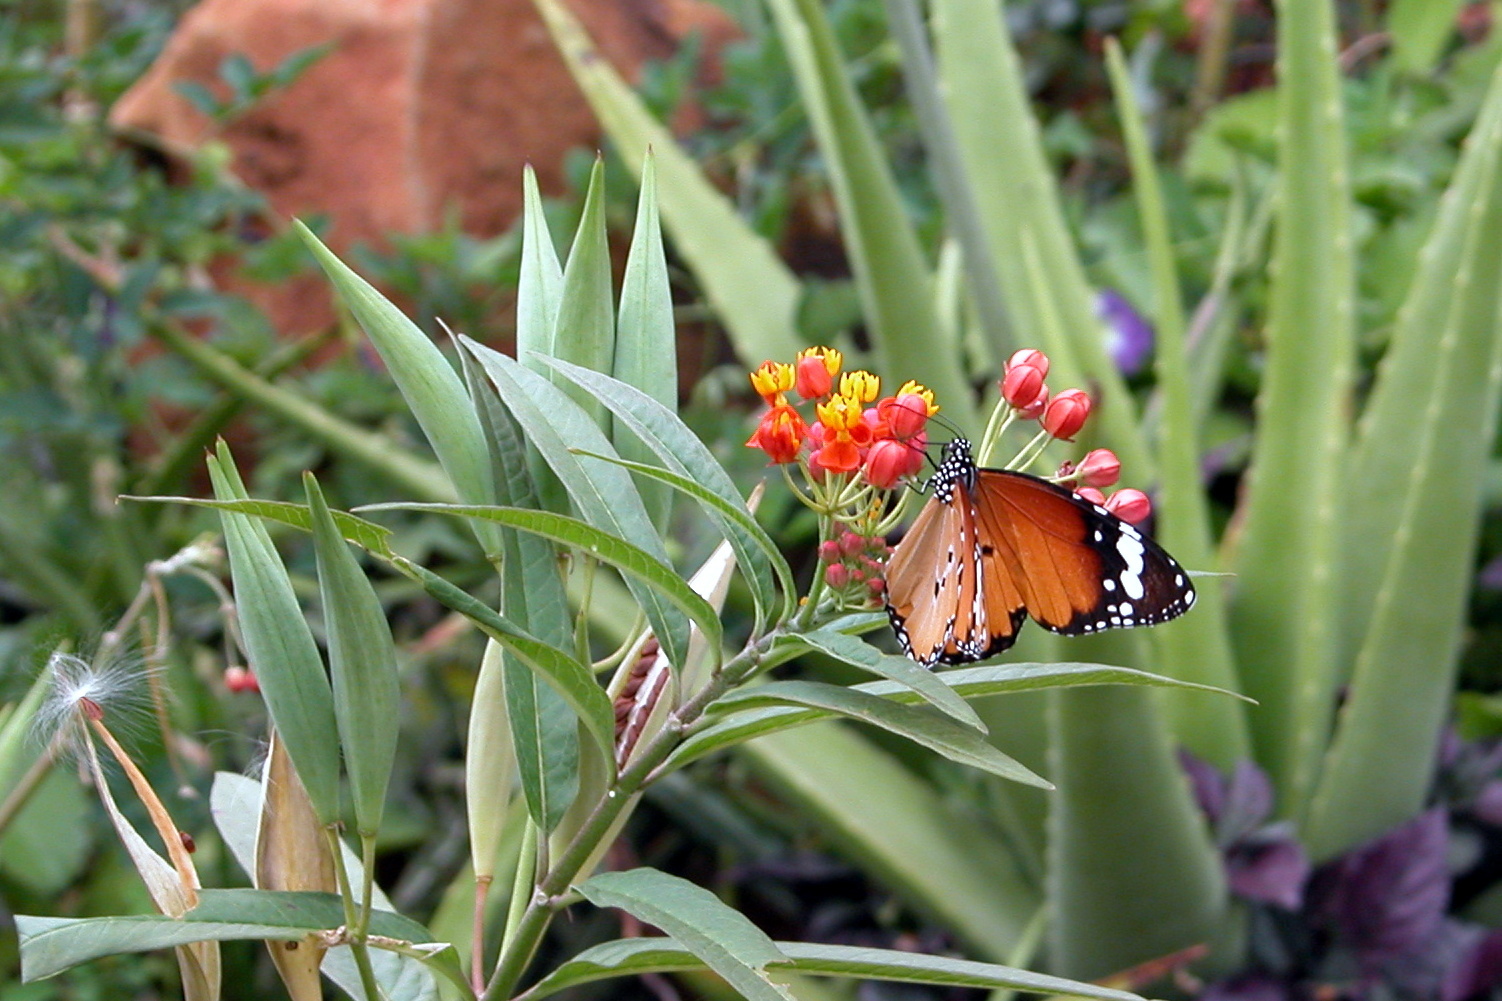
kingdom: Animalia
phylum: Arthropoda
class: Insecta
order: Lepidoptera
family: Nymphalidae
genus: Danaus
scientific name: Danaus chrysippus
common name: Plain tiger
